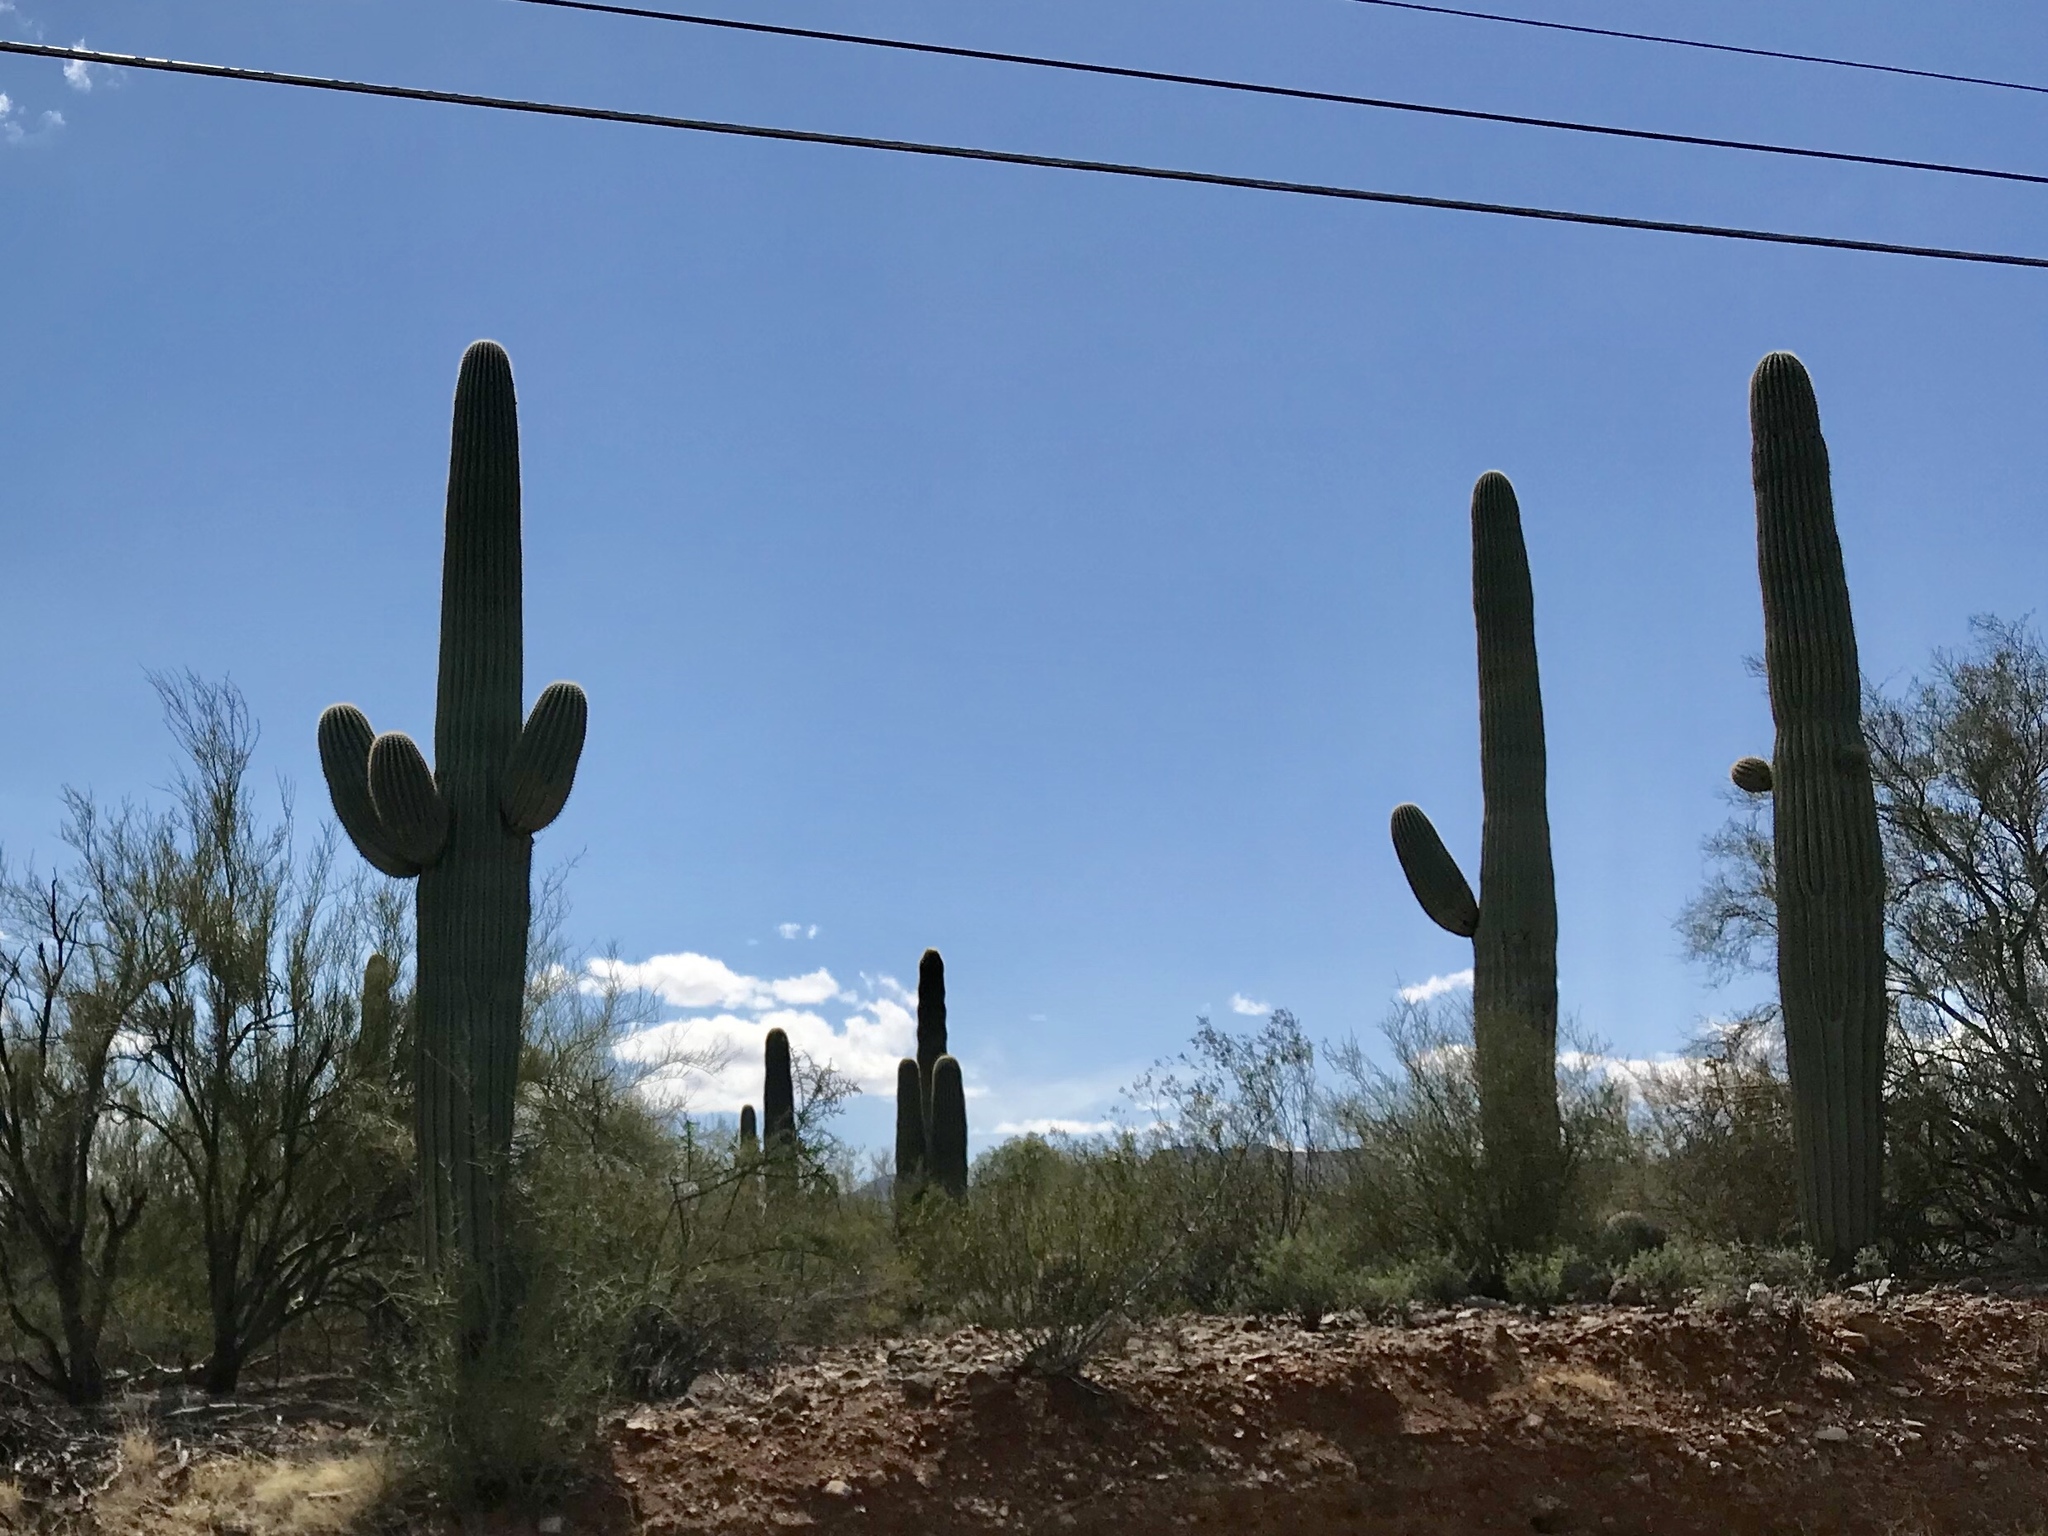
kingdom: Plantae
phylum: Tracheophyta
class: Magnoliopsida
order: Caryophyllales
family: Cactaceae
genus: Carnegiea
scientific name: Carnegiea gigantea
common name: Saguaro
